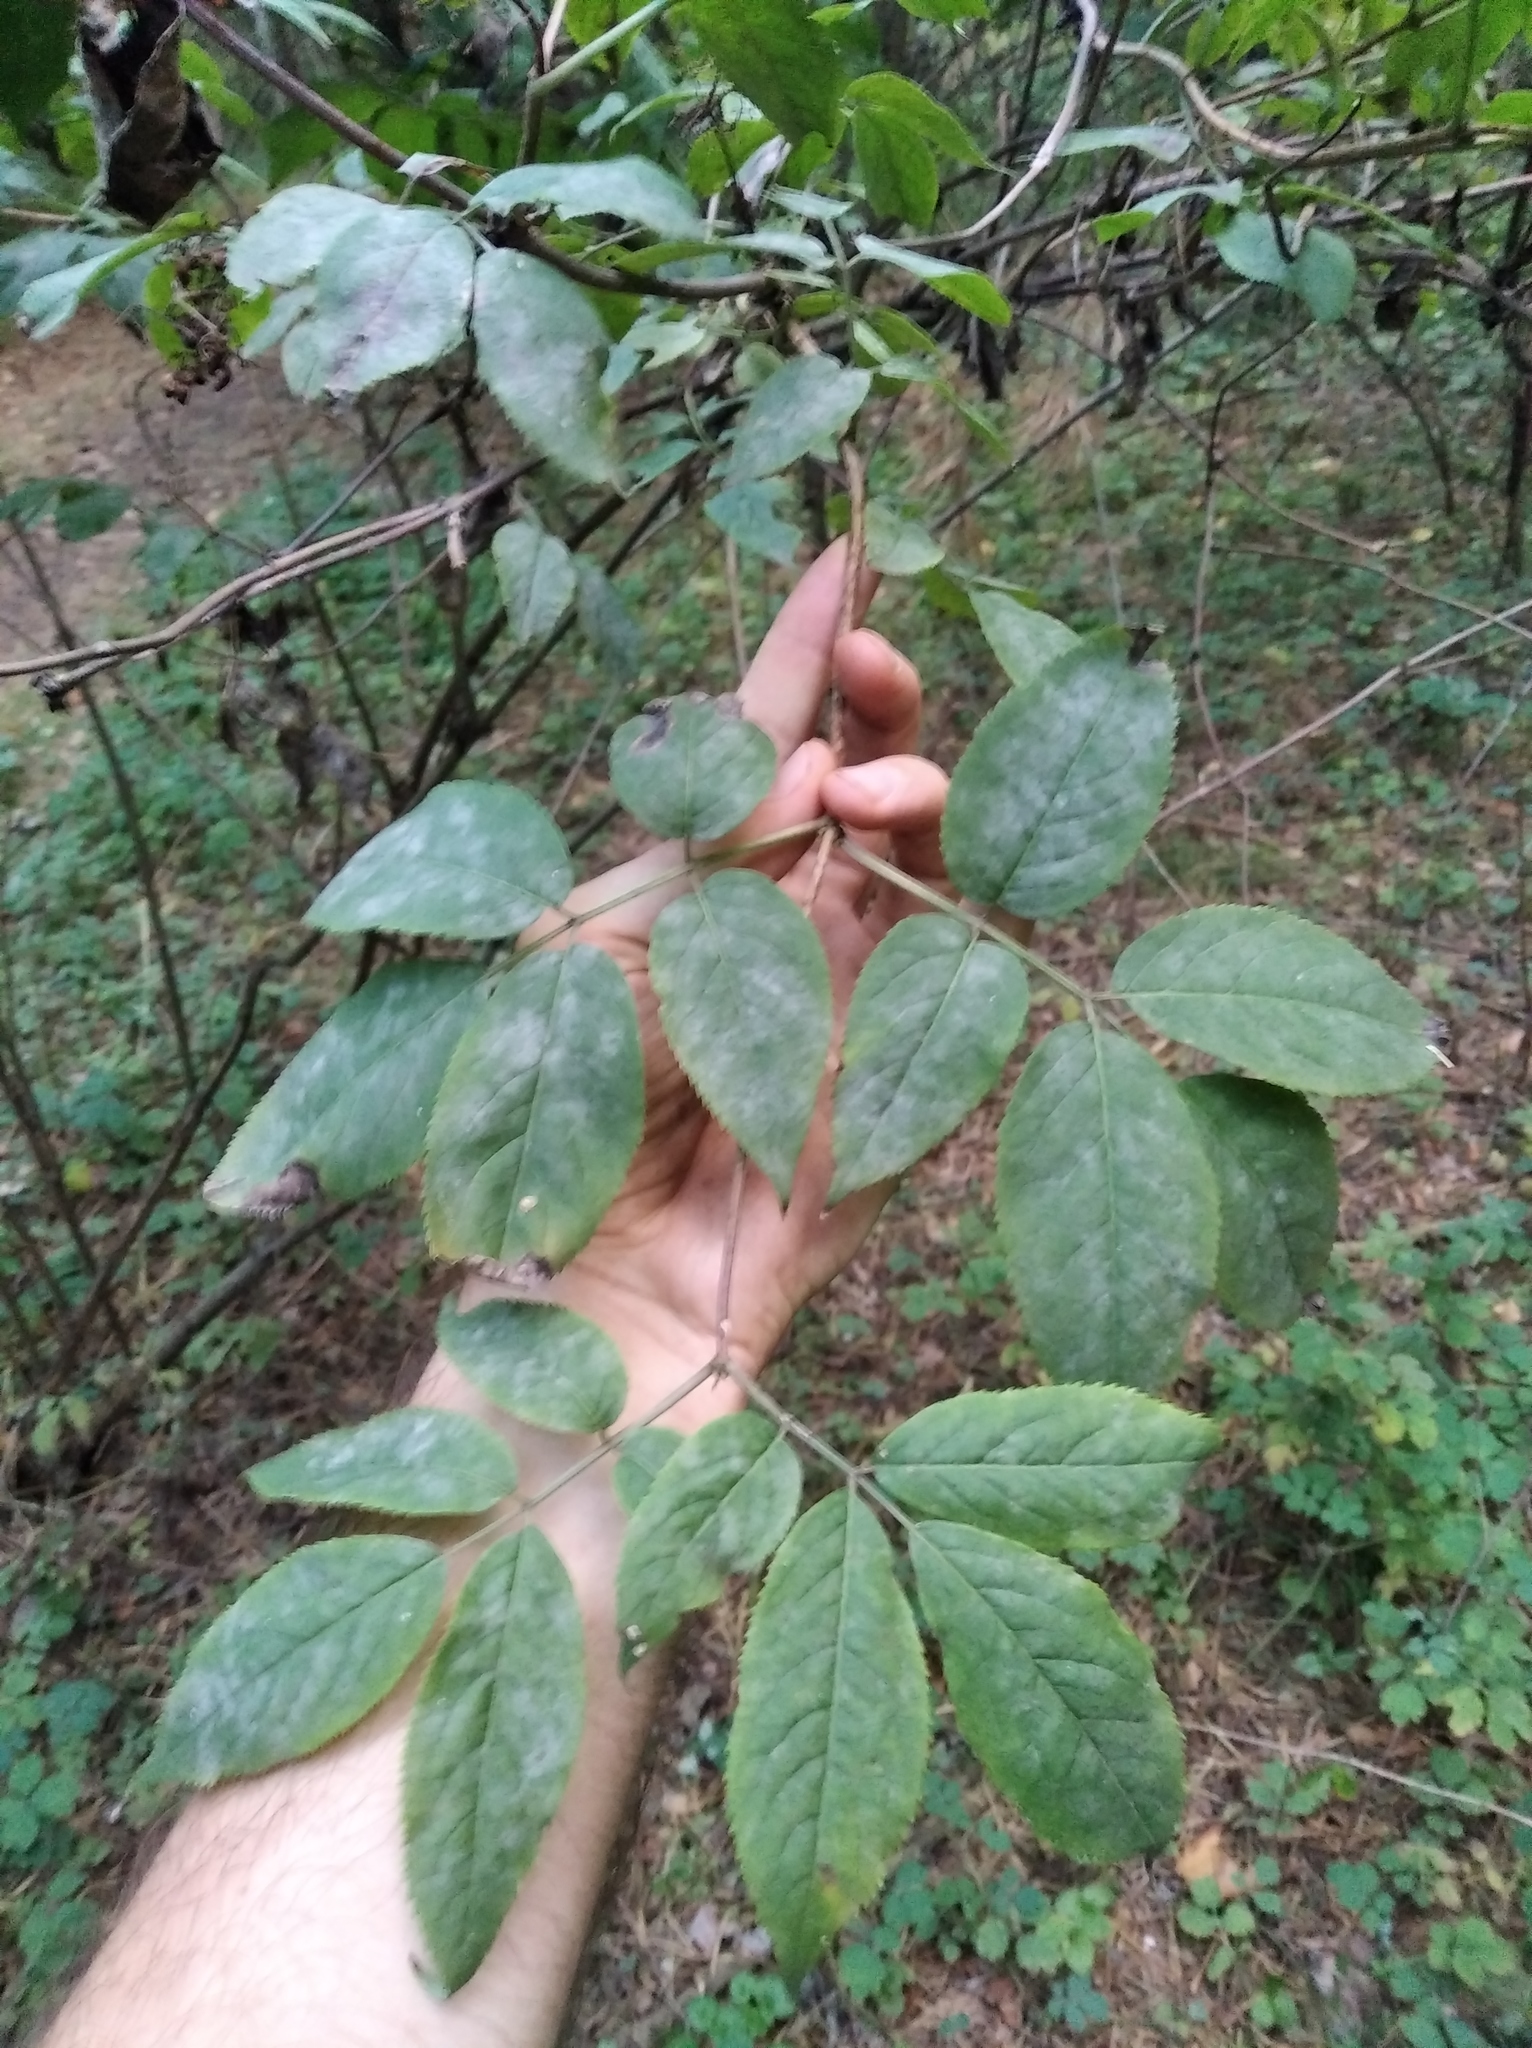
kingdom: Fungi
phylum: Ascomycota
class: Leotiomycetes
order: Helotiales
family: Erysiphaceae
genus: Erysiphe
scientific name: Erysiphe sambuci
